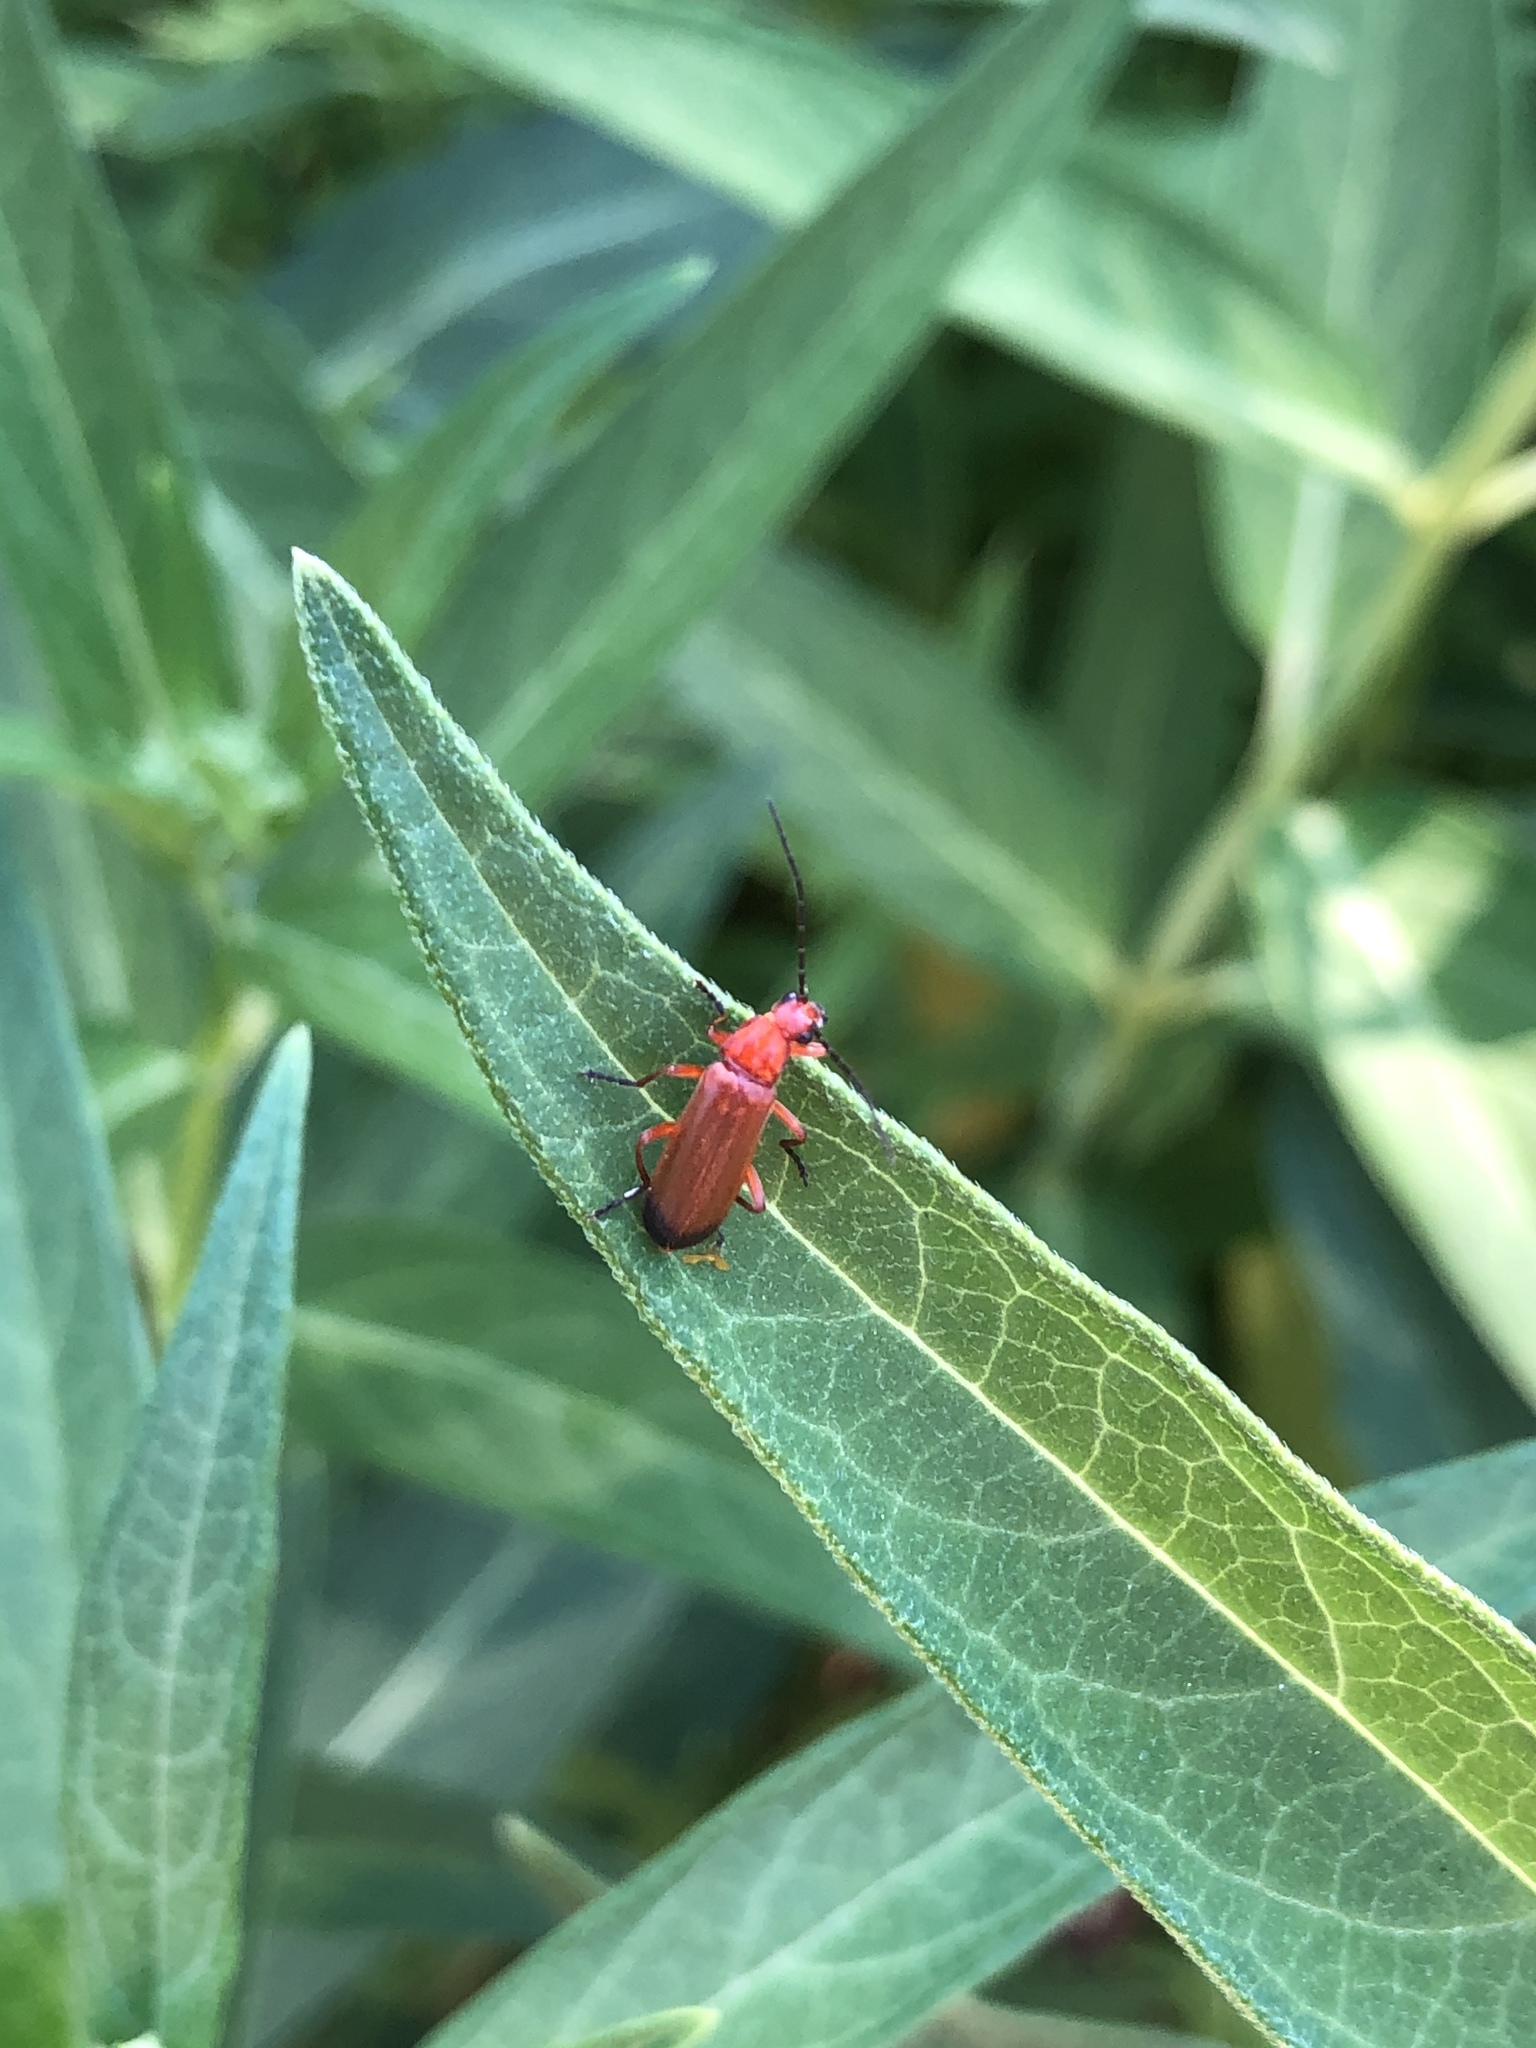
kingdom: Animalia
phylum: Arthropoda
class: Insecta
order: Coleoptera
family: Cantharidae
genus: Rhagonycha
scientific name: Rhagonycha fulva
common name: Common red soldier beetle
